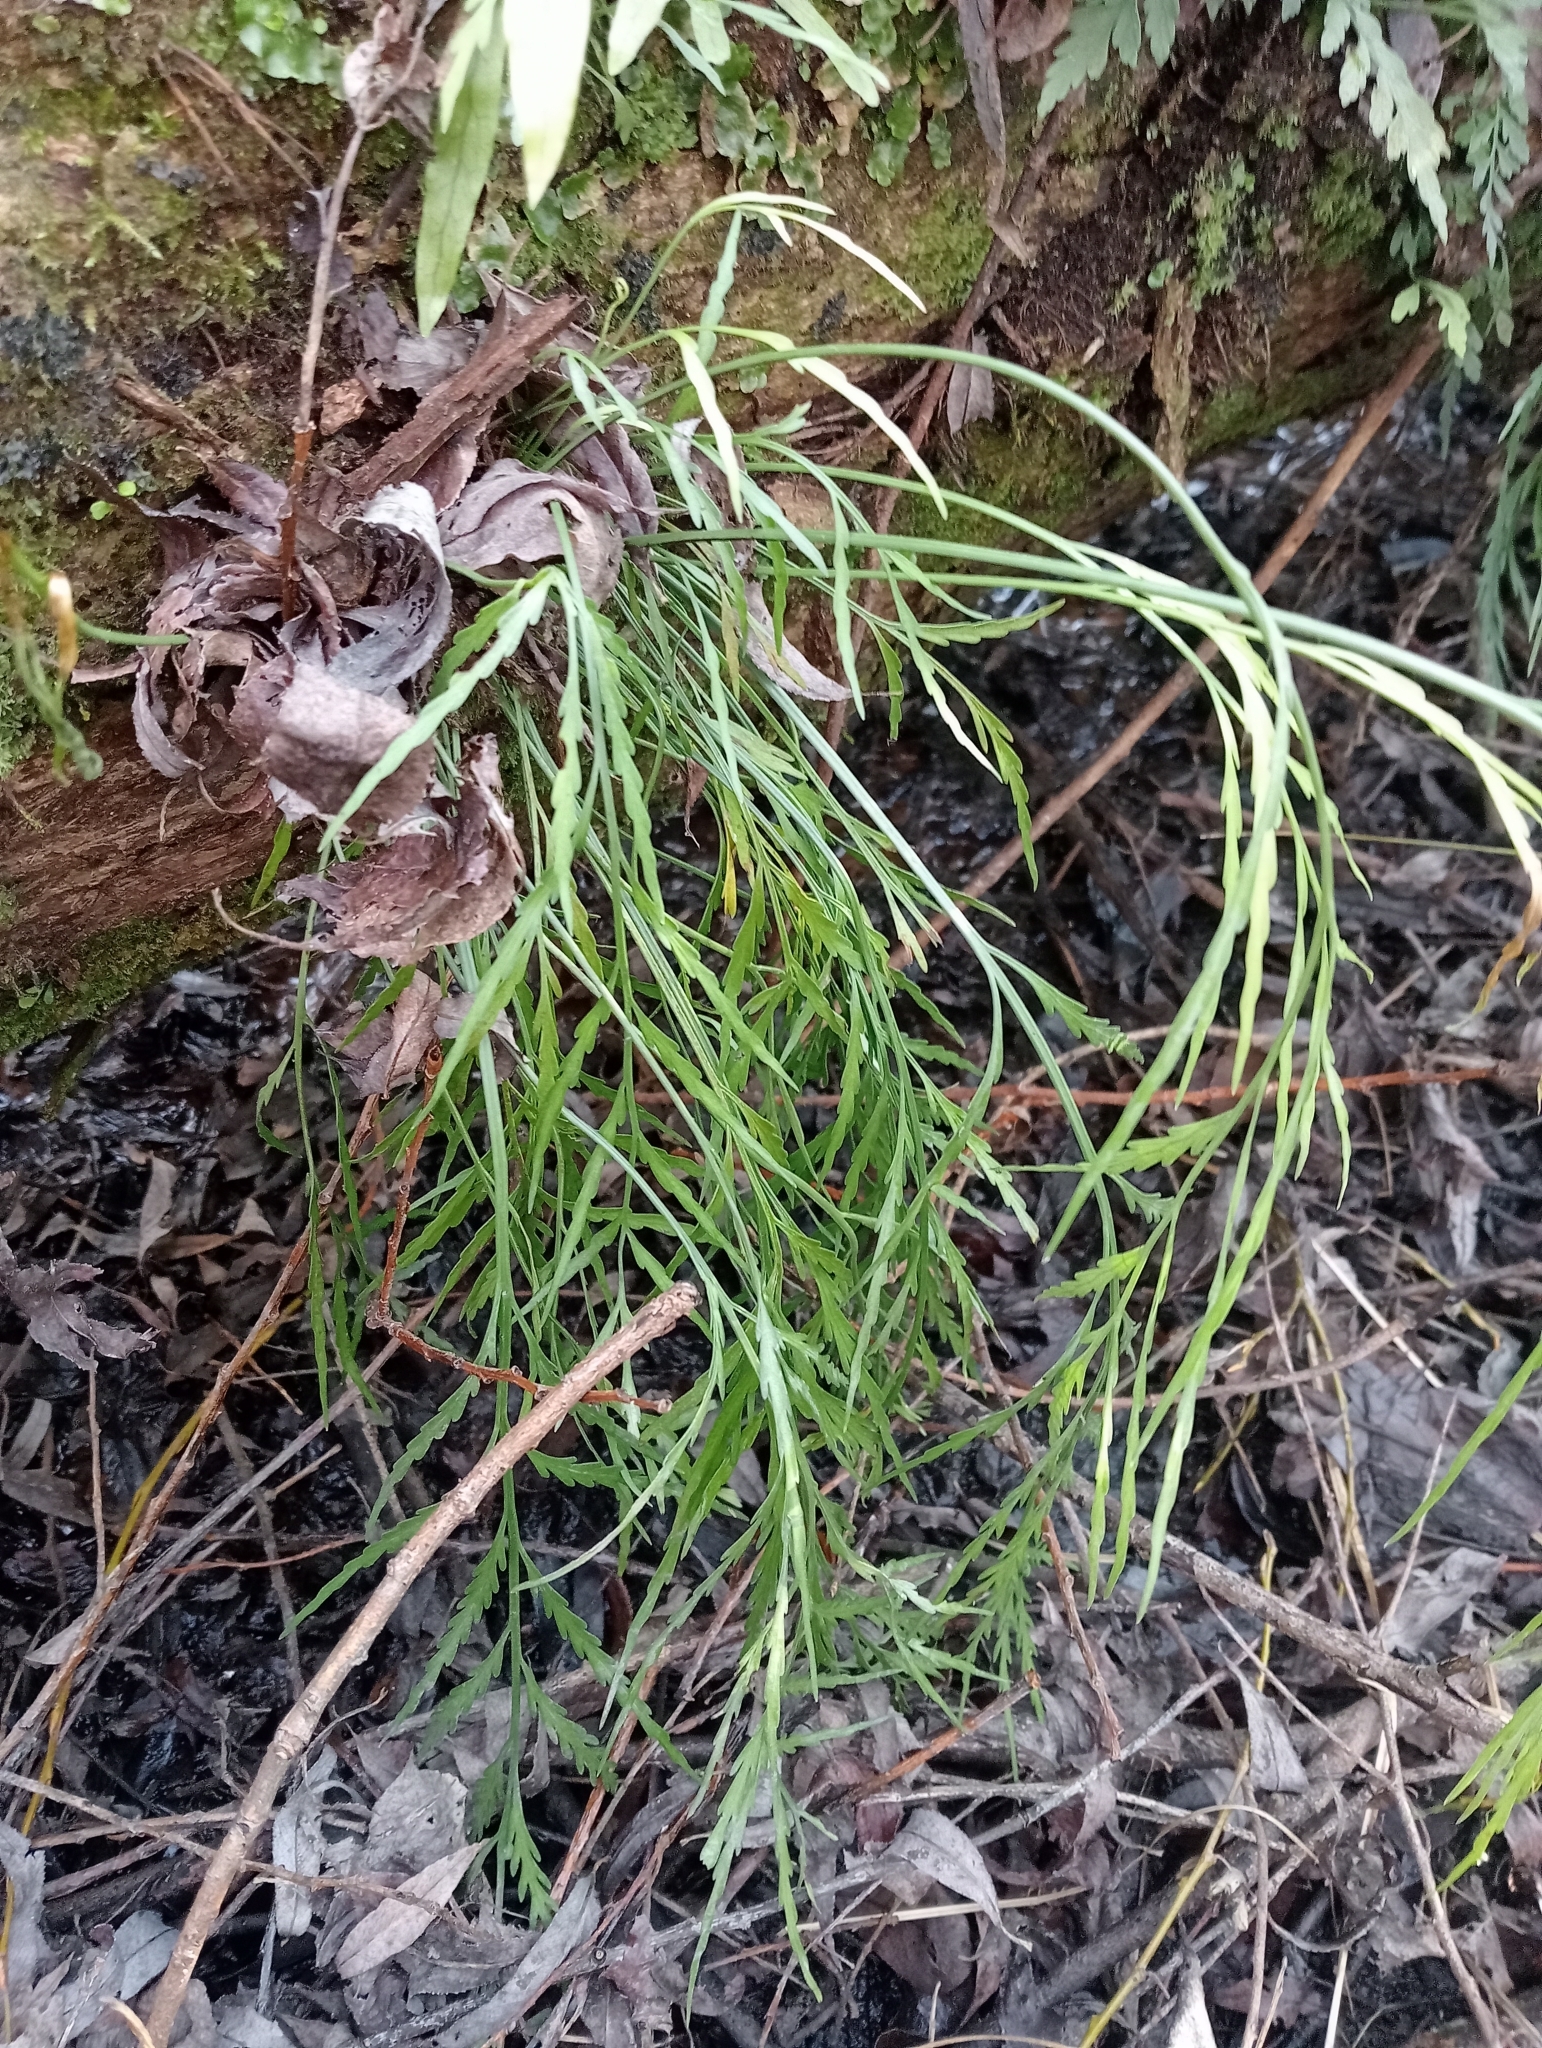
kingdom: Plantae
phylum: Tracheophyta
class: Polypodiopsida
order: Polypodiales
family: Aspleniaceae
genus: Asplenium
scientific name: Asplenium flaccidum
